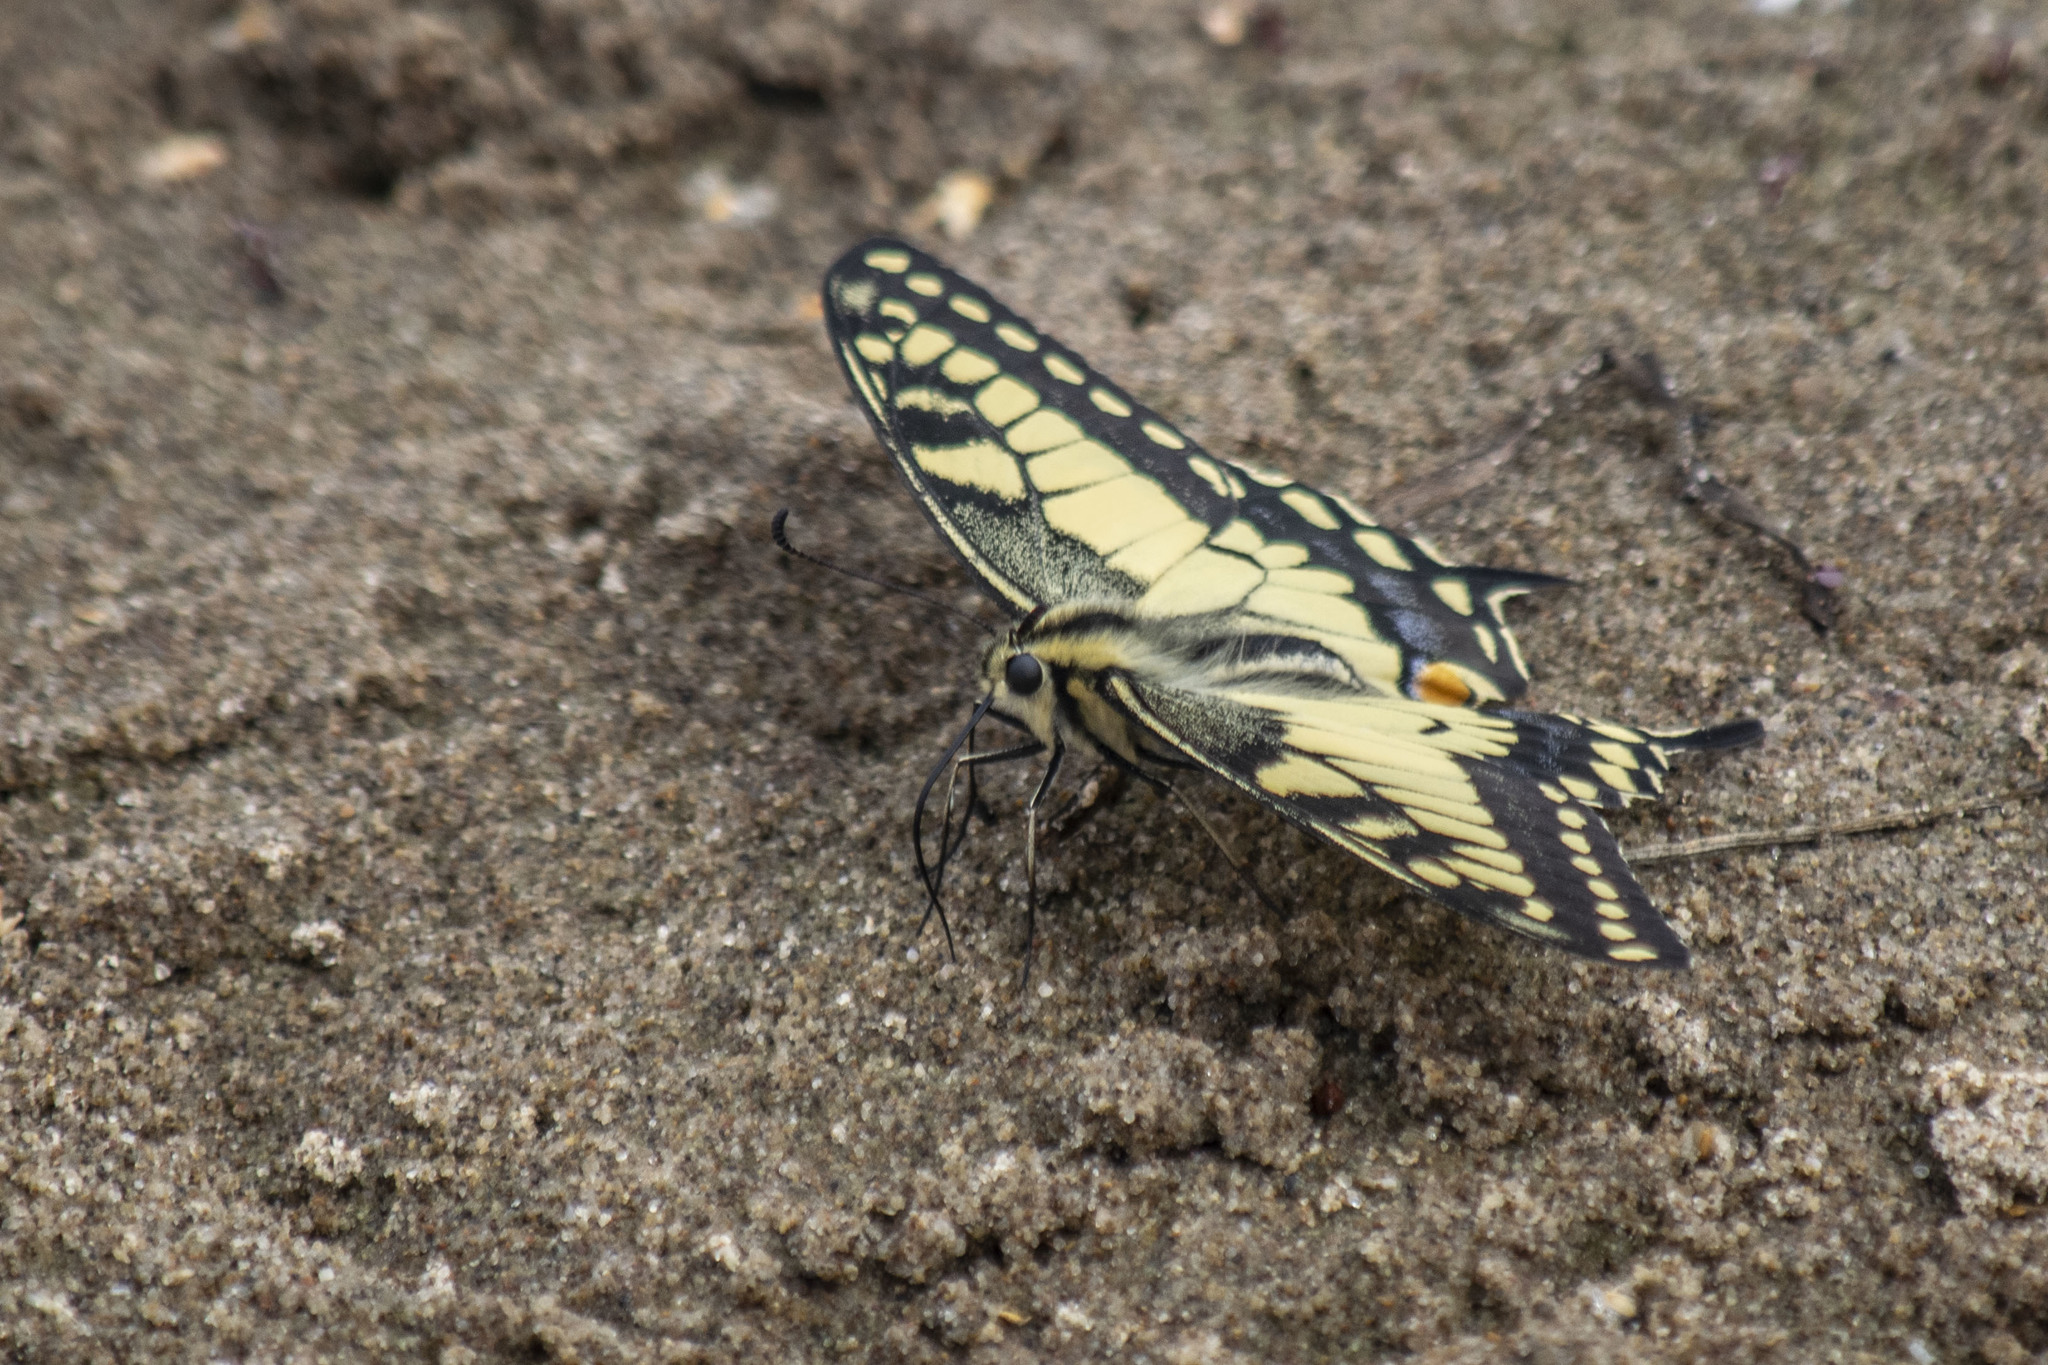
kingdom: Animalia
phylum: Arthropoda
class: Insecta
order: Lepidoptera
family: Papilionidae
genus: Papilio
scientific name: Papilio machaon
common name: Swallowtail
